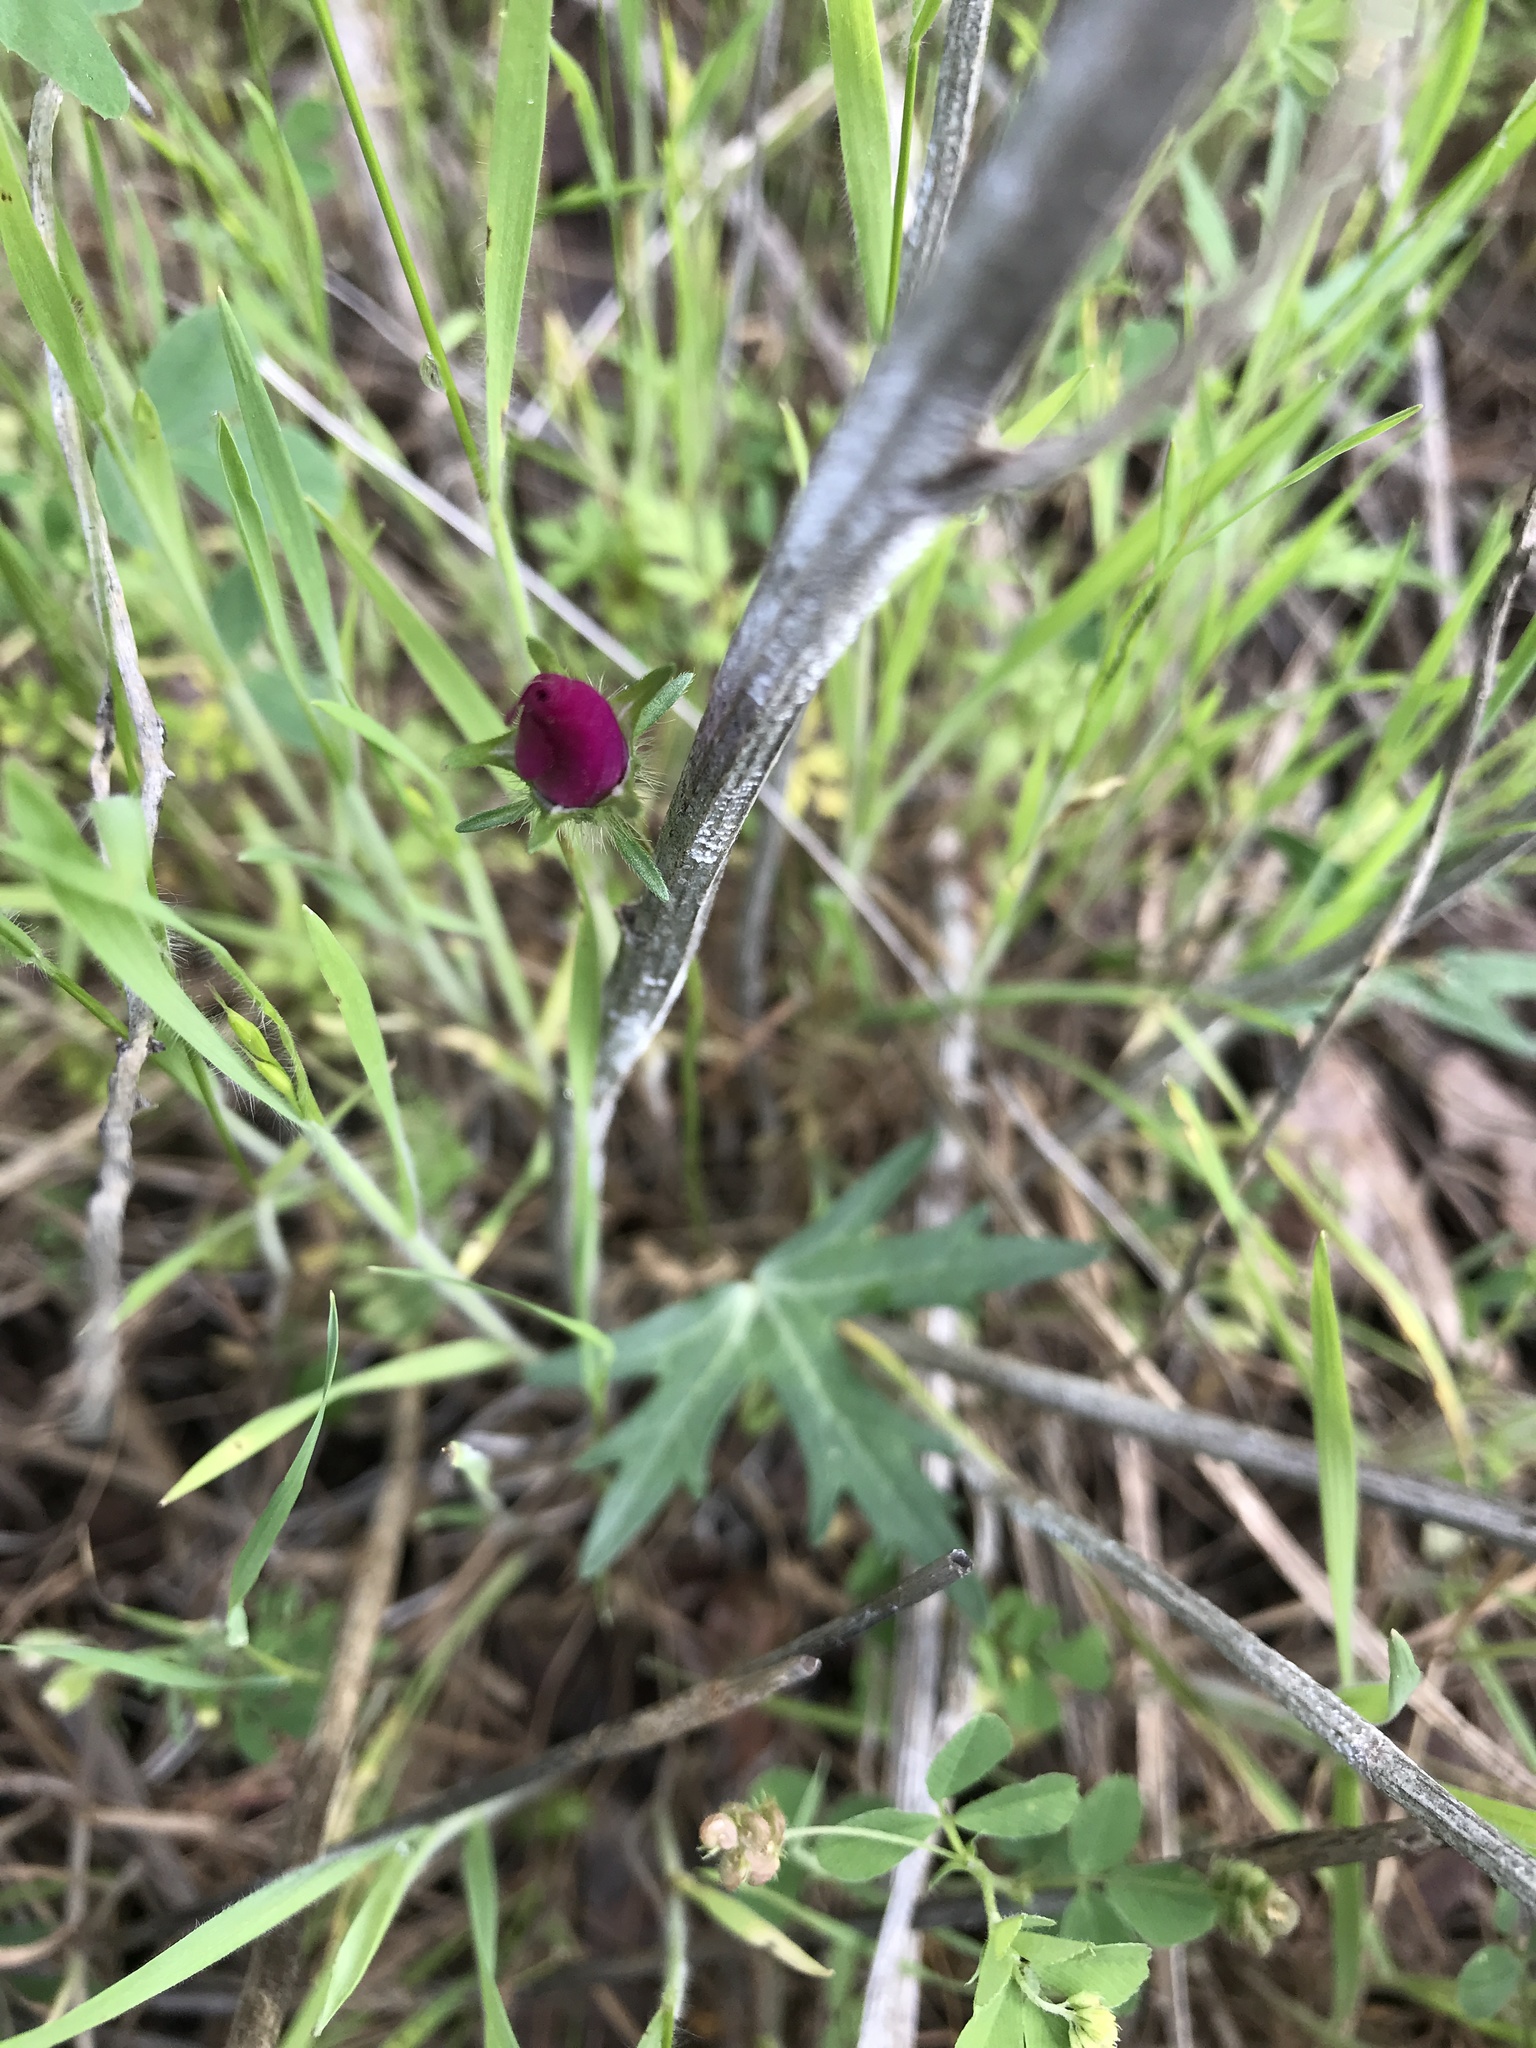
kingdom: Plantae
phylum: Tracheophyta
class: Magnoliopsida
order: Malvales
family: Malvaceae
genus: Callirhoe
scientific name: Callirhoe involucrata
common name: Purple poppy-mallow
